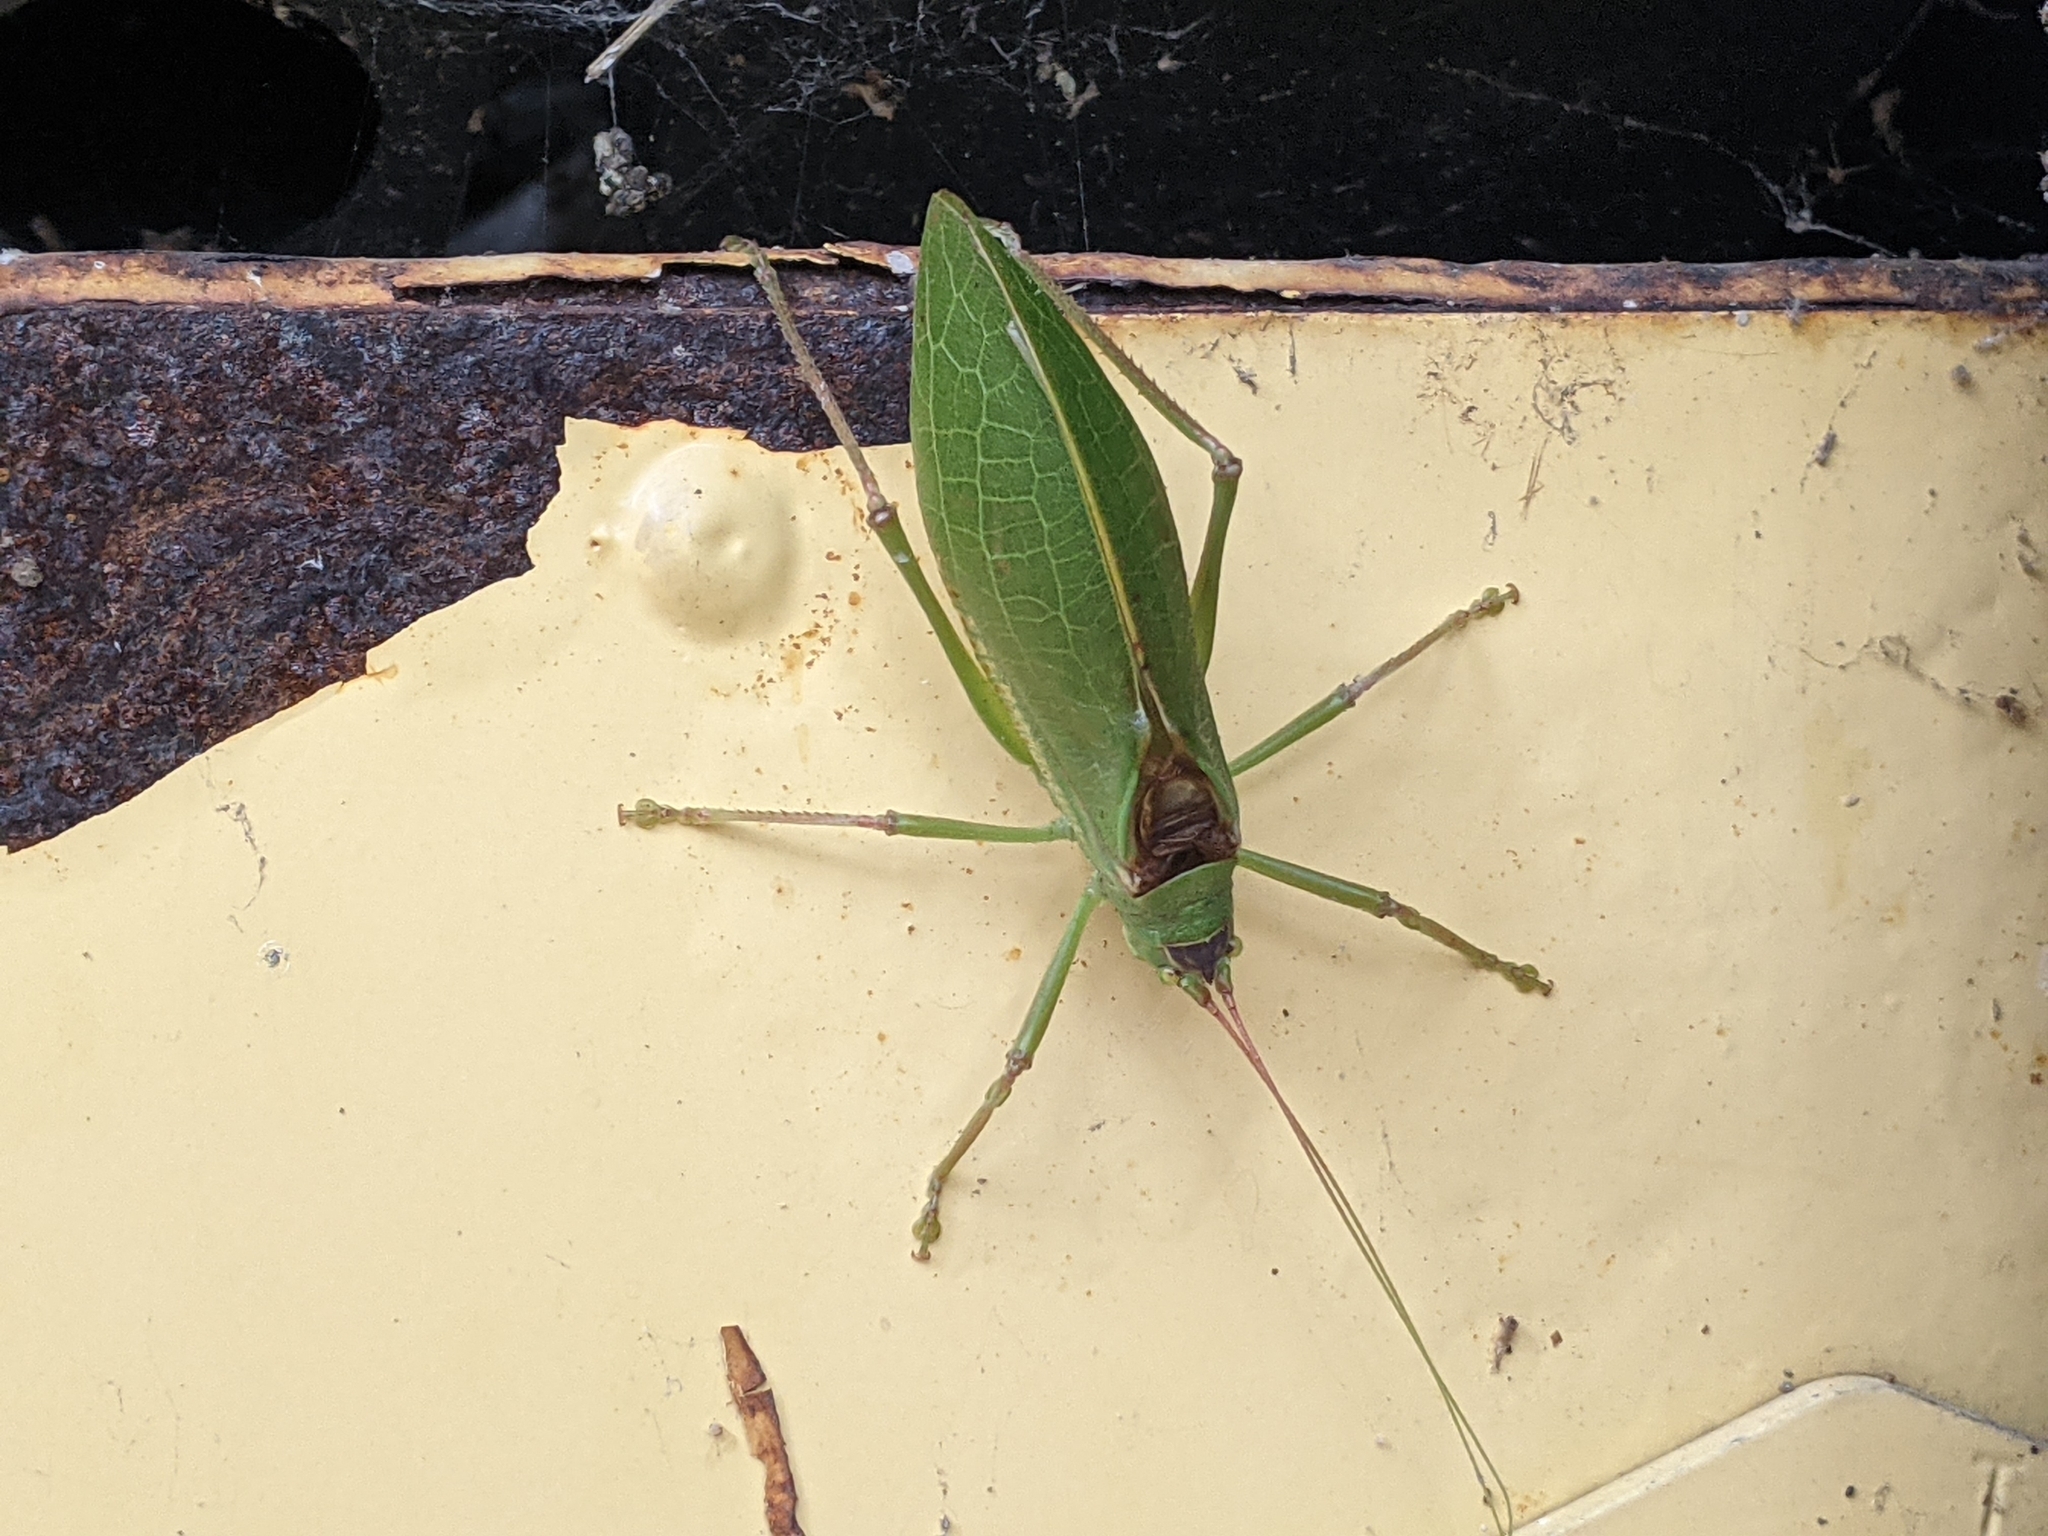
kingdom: Animalia
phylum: Arthropoda
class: Insecta
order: Orthoptera
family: Tettigoniidae
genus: Pterophylla
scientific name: Pterophylla camellifolia
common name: Common true katydid
